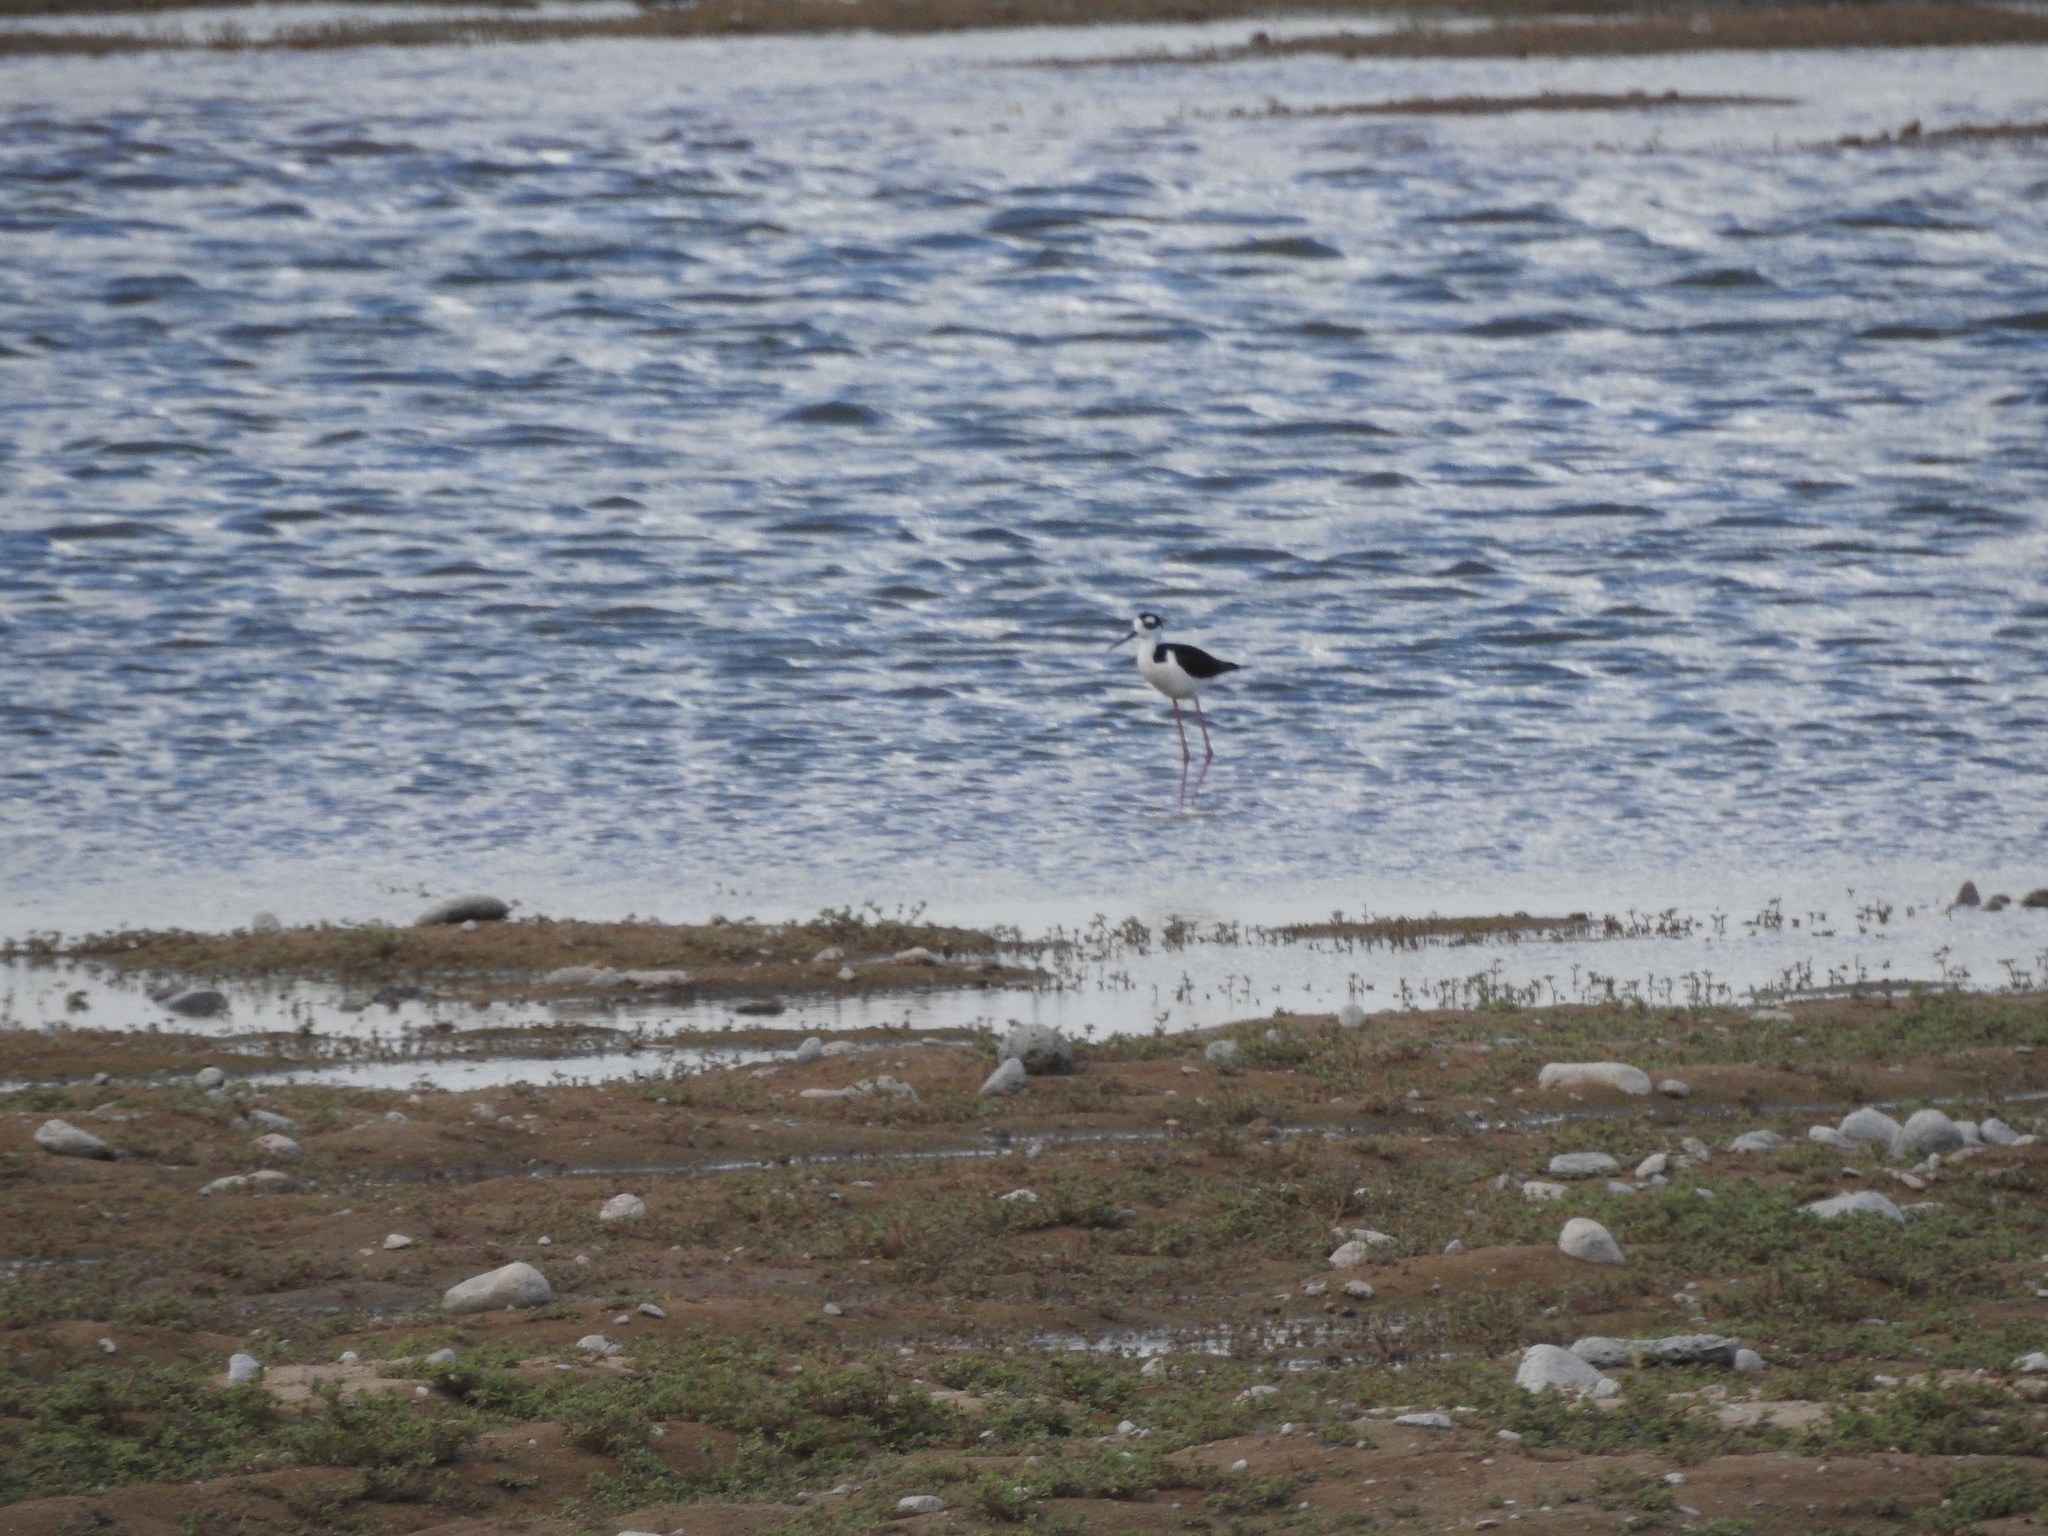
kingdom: Animalia
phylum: Chordata
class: Aves
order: Charadriiformes
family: Recurvirostridae
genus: Himantopus
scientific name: Himantopus mexicanus
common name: Black-necked stilt
